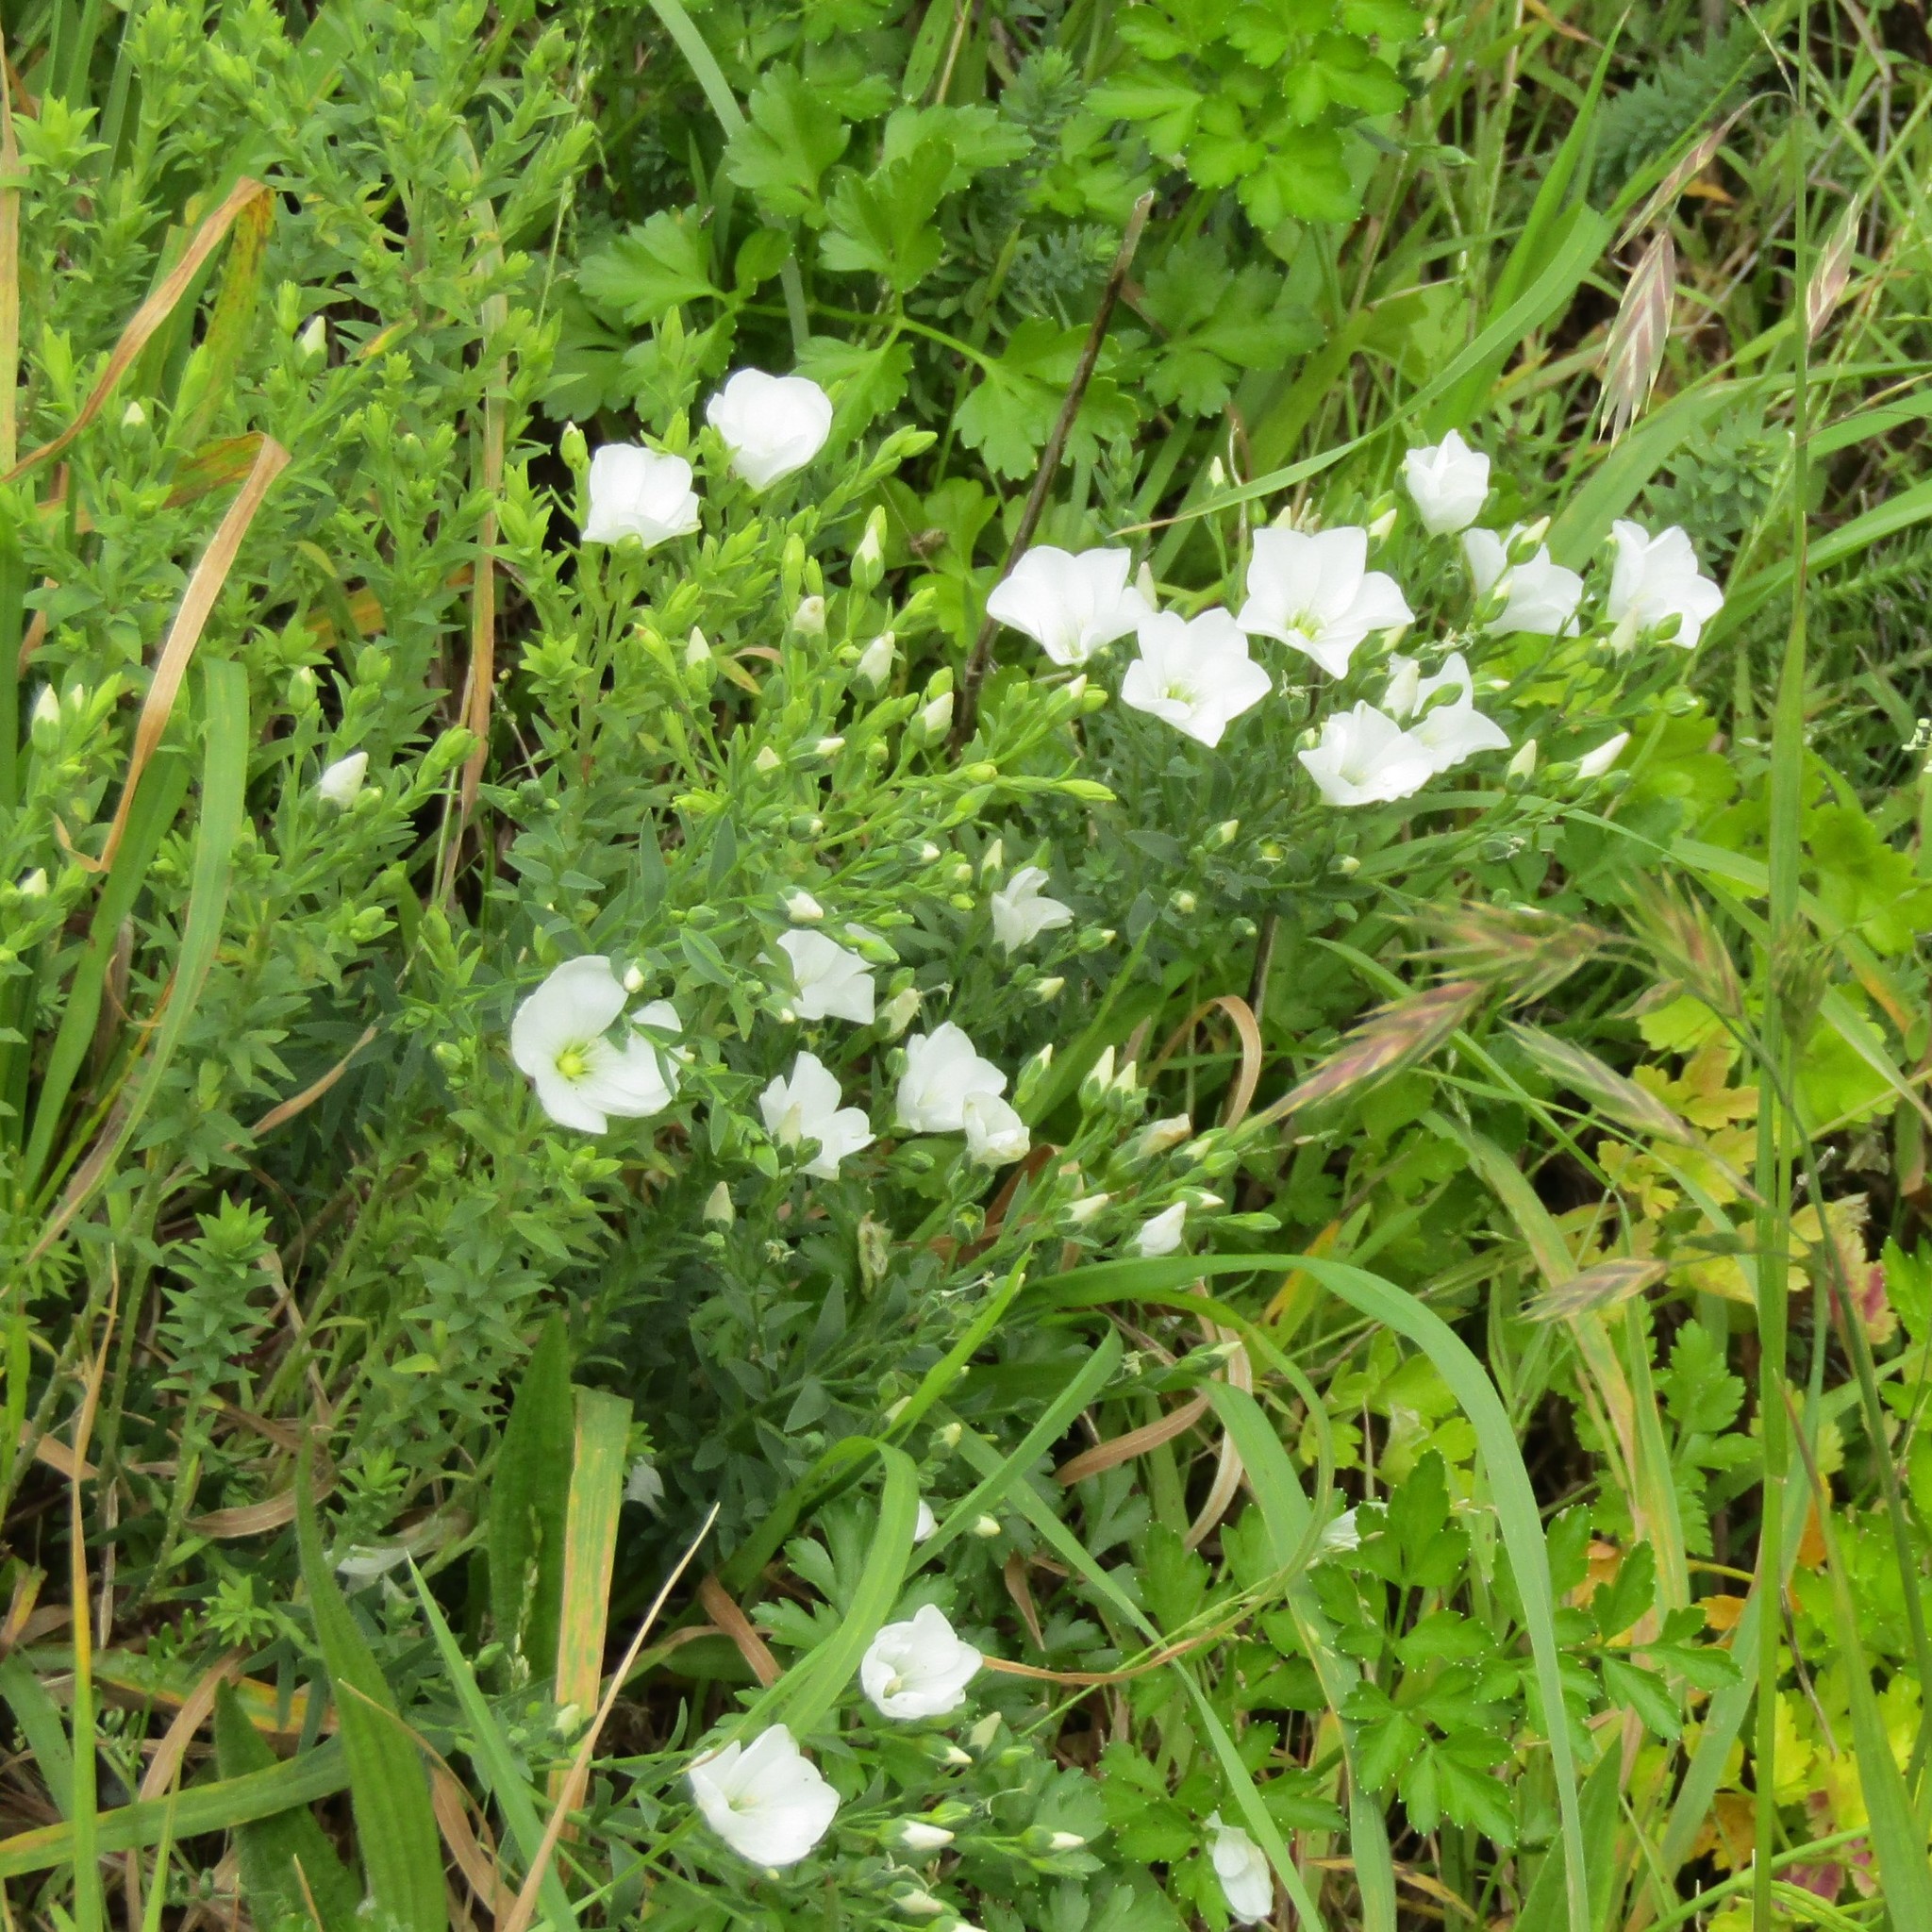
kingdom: Plantae
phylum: Tracheophyta
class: Magnoliopsida
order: Malpighiales
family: Linaceae
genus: Linum
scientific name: Linum monogynum
